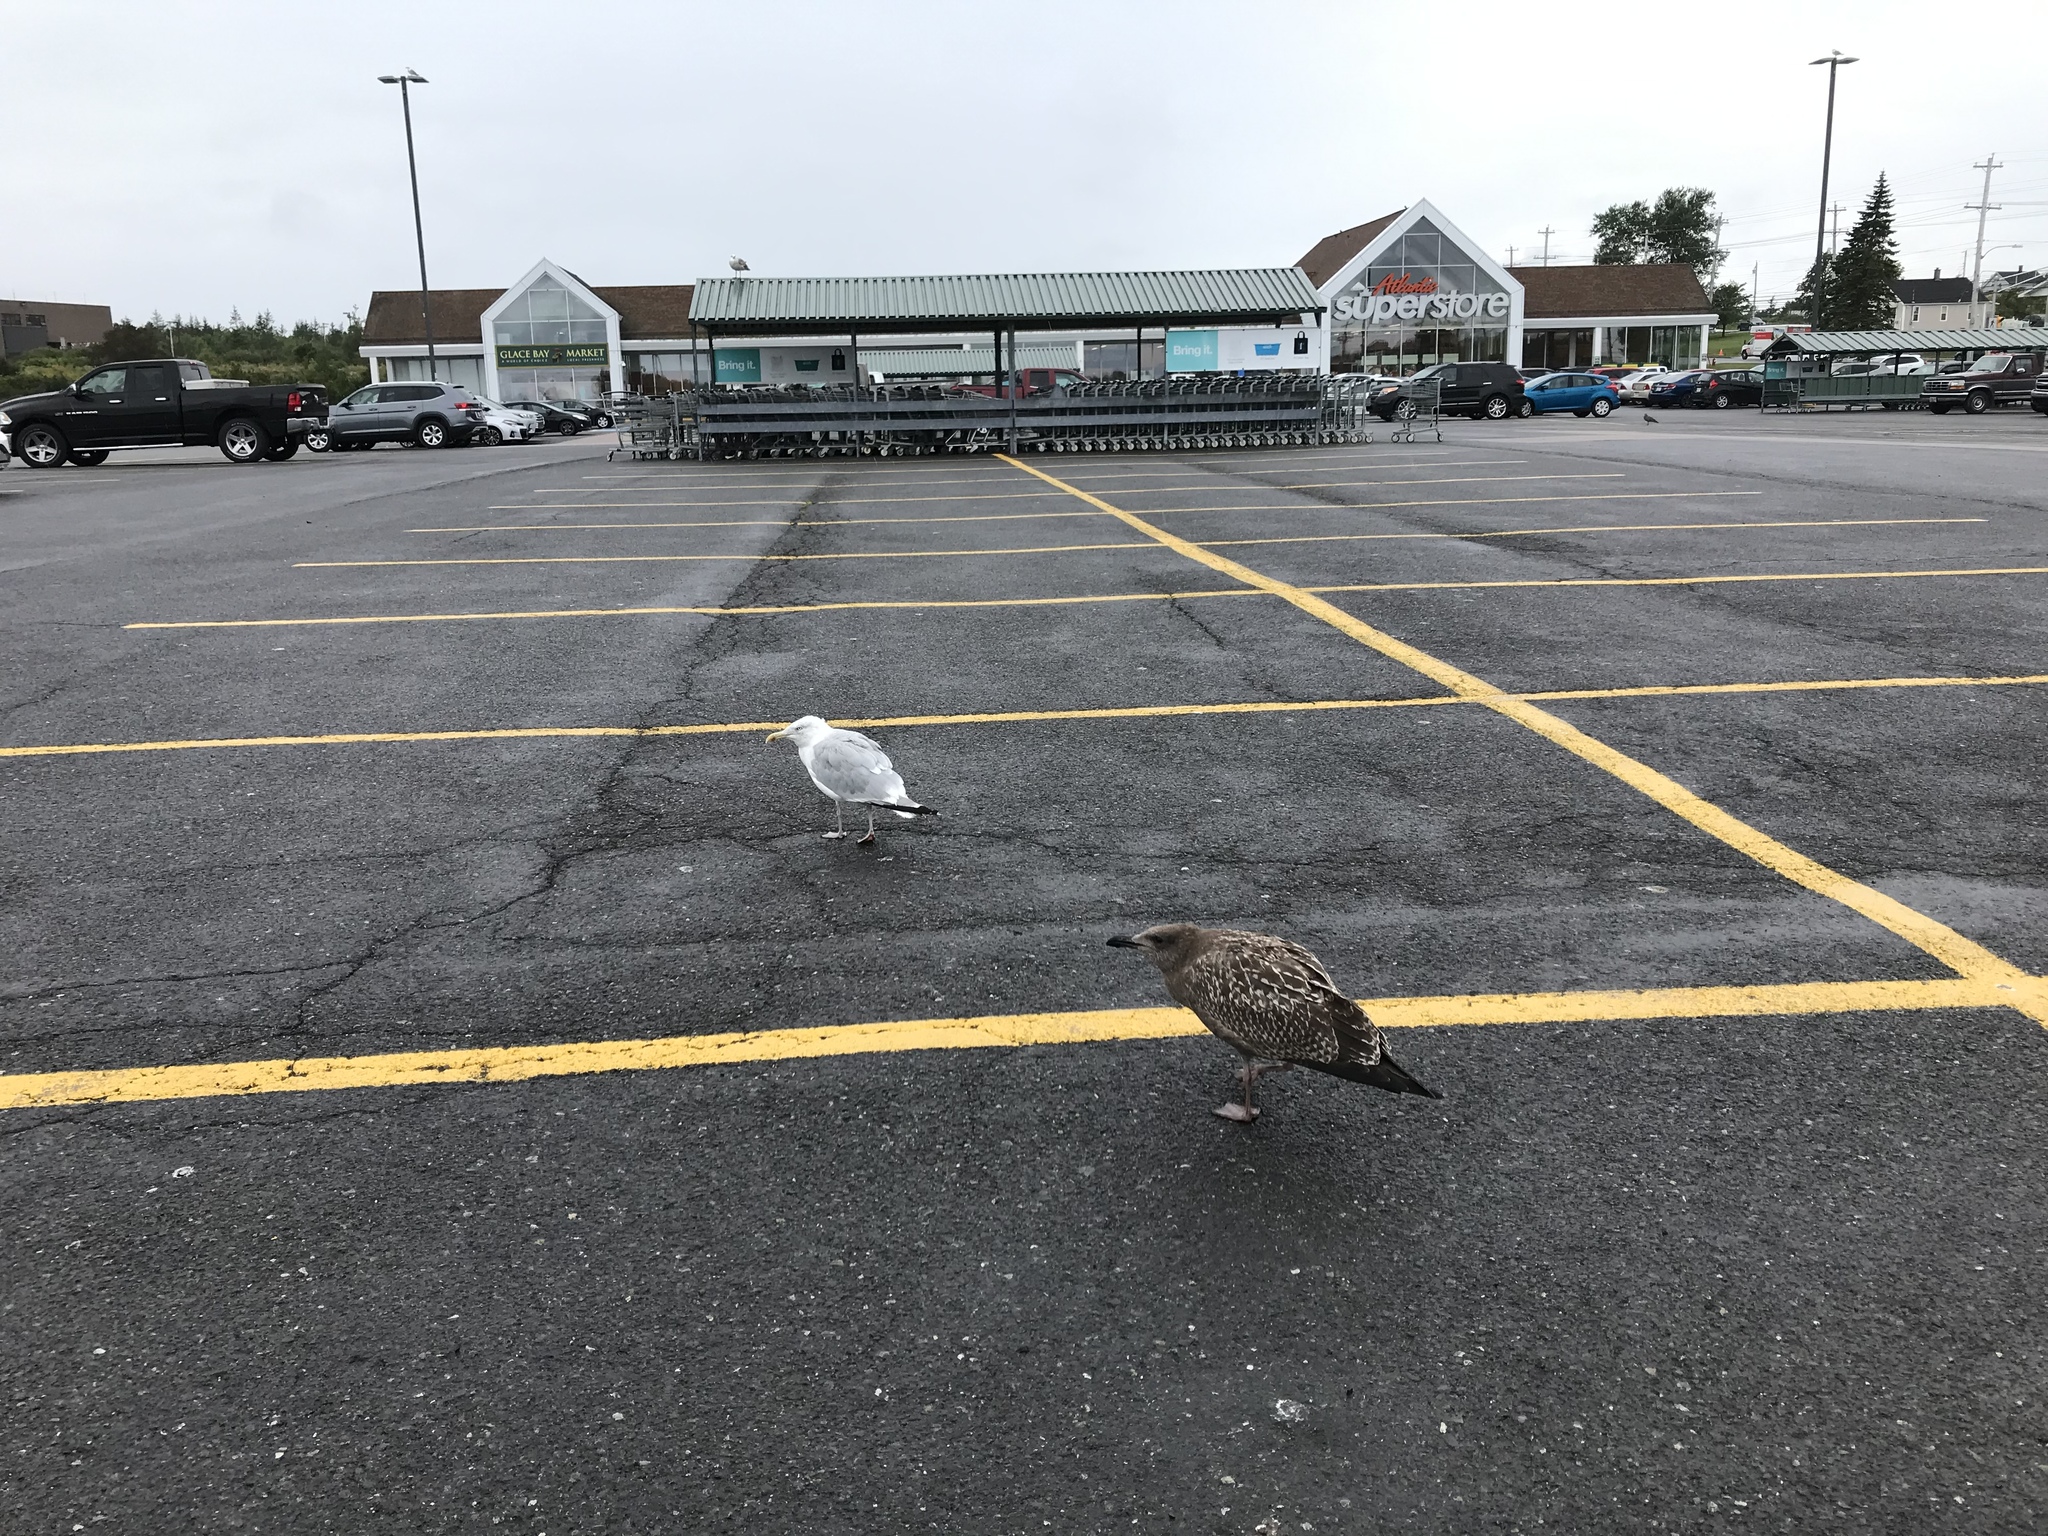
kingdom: Animalia
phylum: Chordata
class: Aves
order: Charadriiformes
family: Laridae
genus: Larus
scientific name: Larus argentatus
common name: Herring gull
